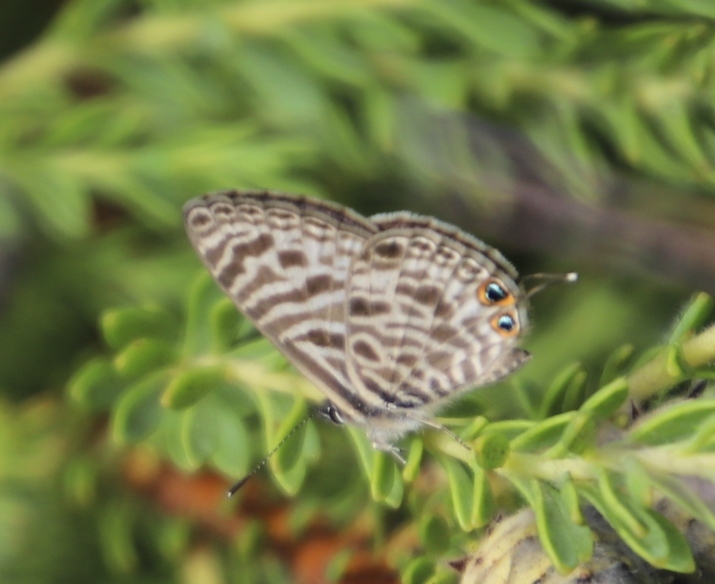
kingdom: Animalia
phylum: Arthropoda
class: Insecta
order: Lepidoptera
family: Lycaenidae
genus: Leptotes
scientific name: Leptotes
